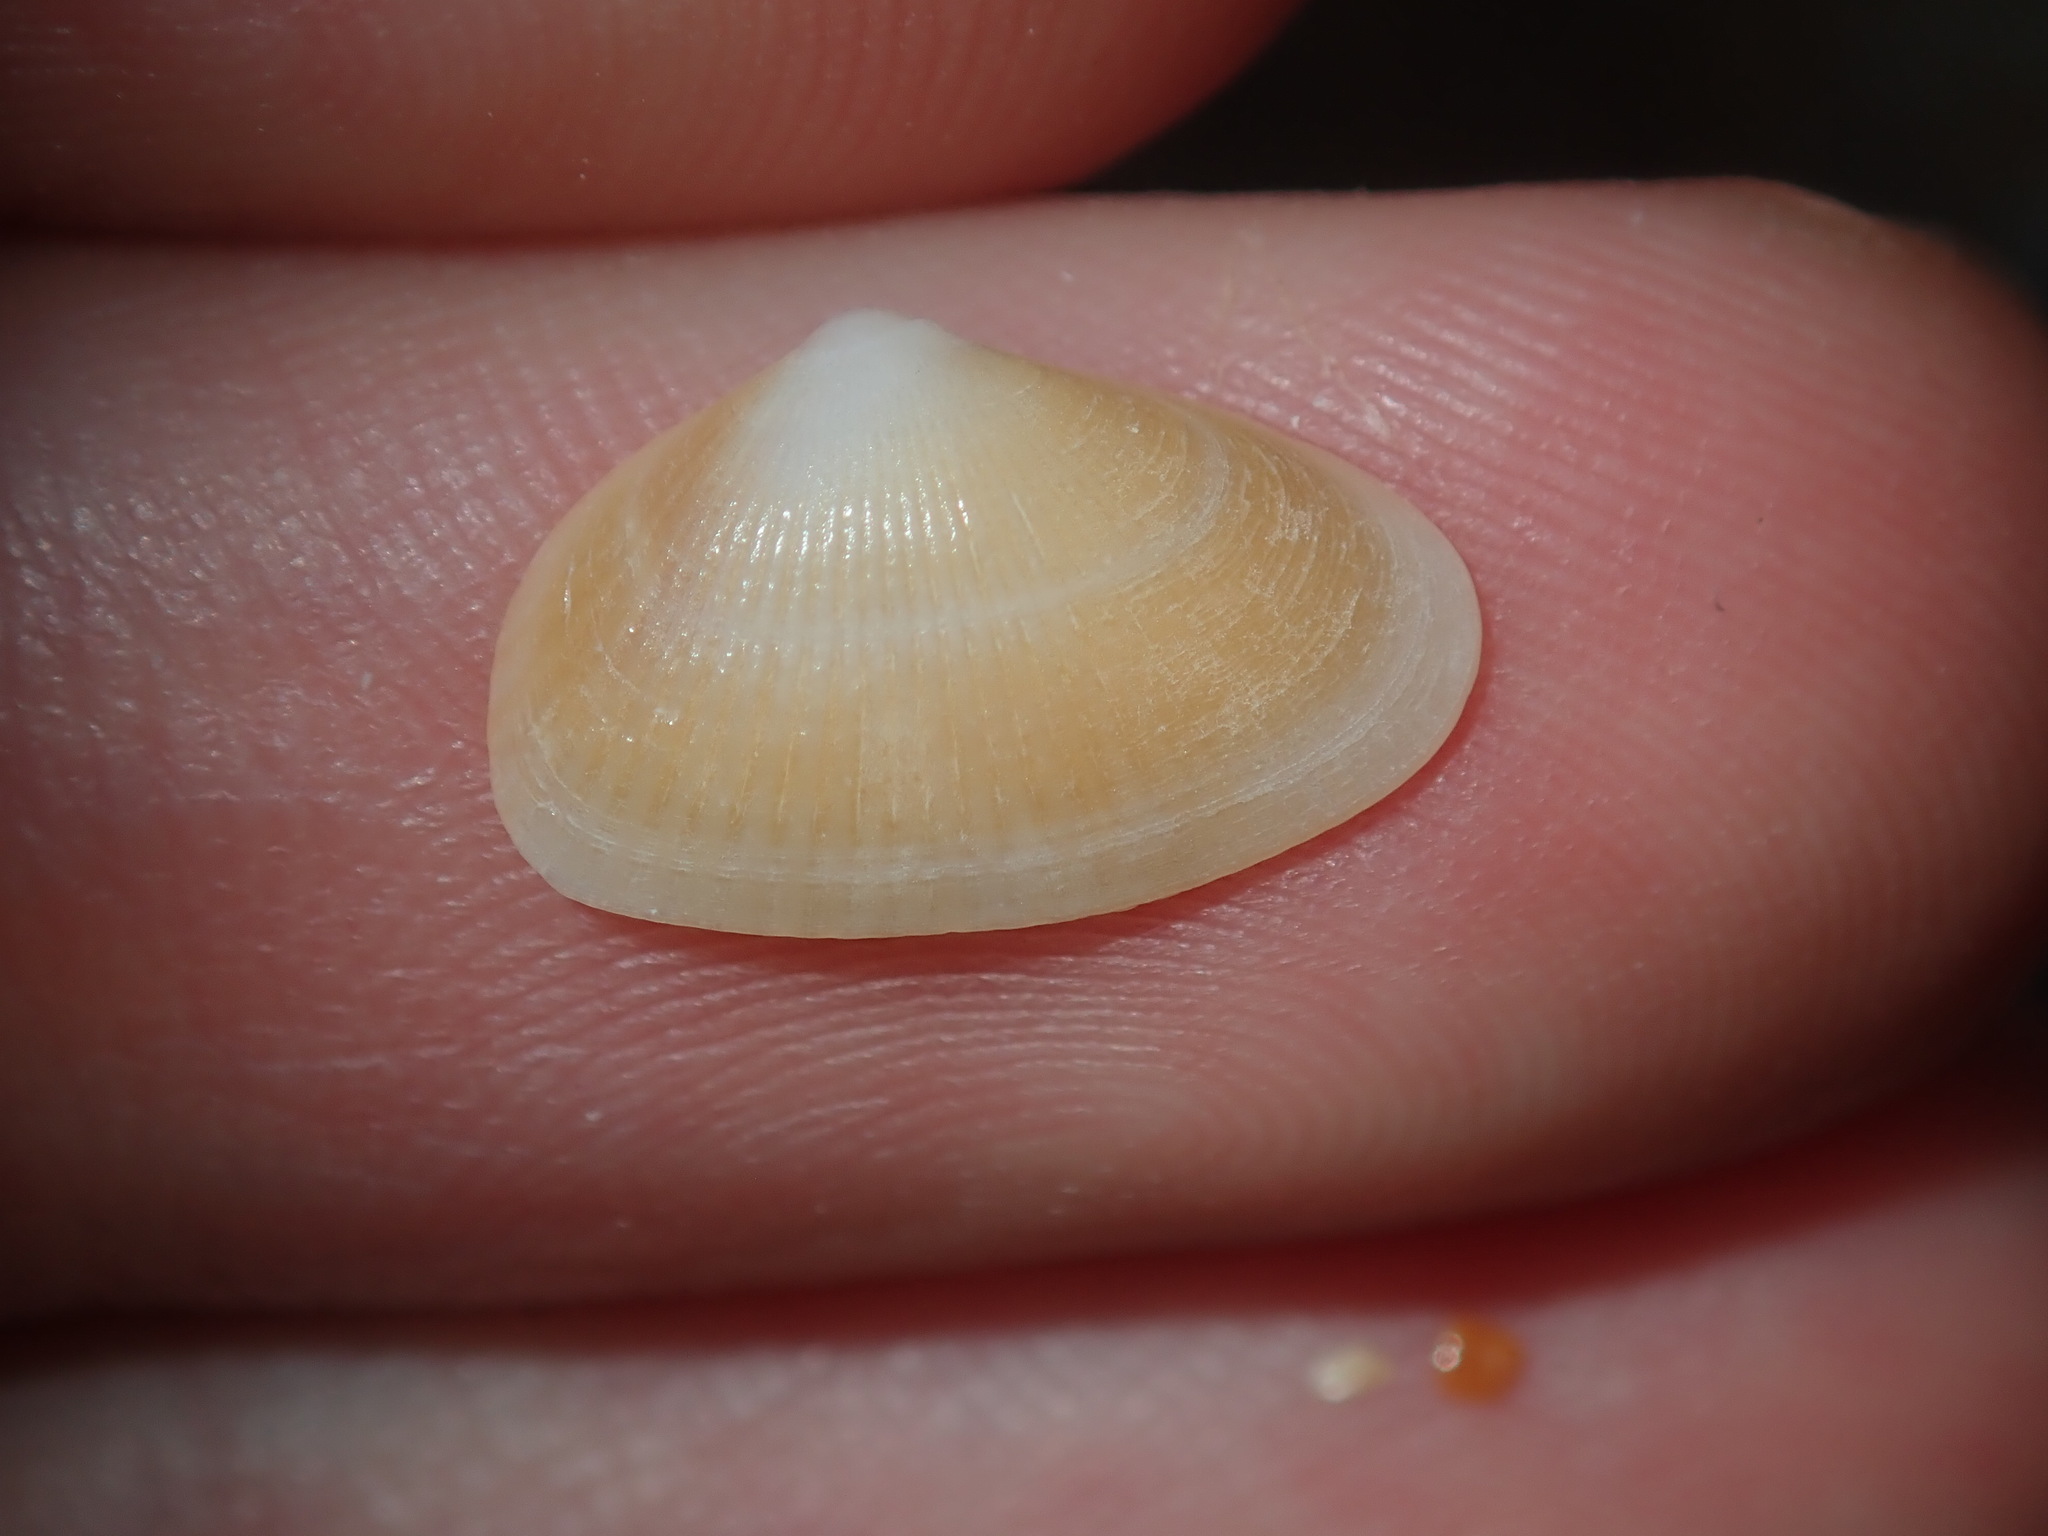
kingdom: Animalia
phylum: Mollusca
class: Bivalvia
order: Venerida
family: Hemidonacidae
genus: Hemidonax
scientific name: Hemidonax dactylus
